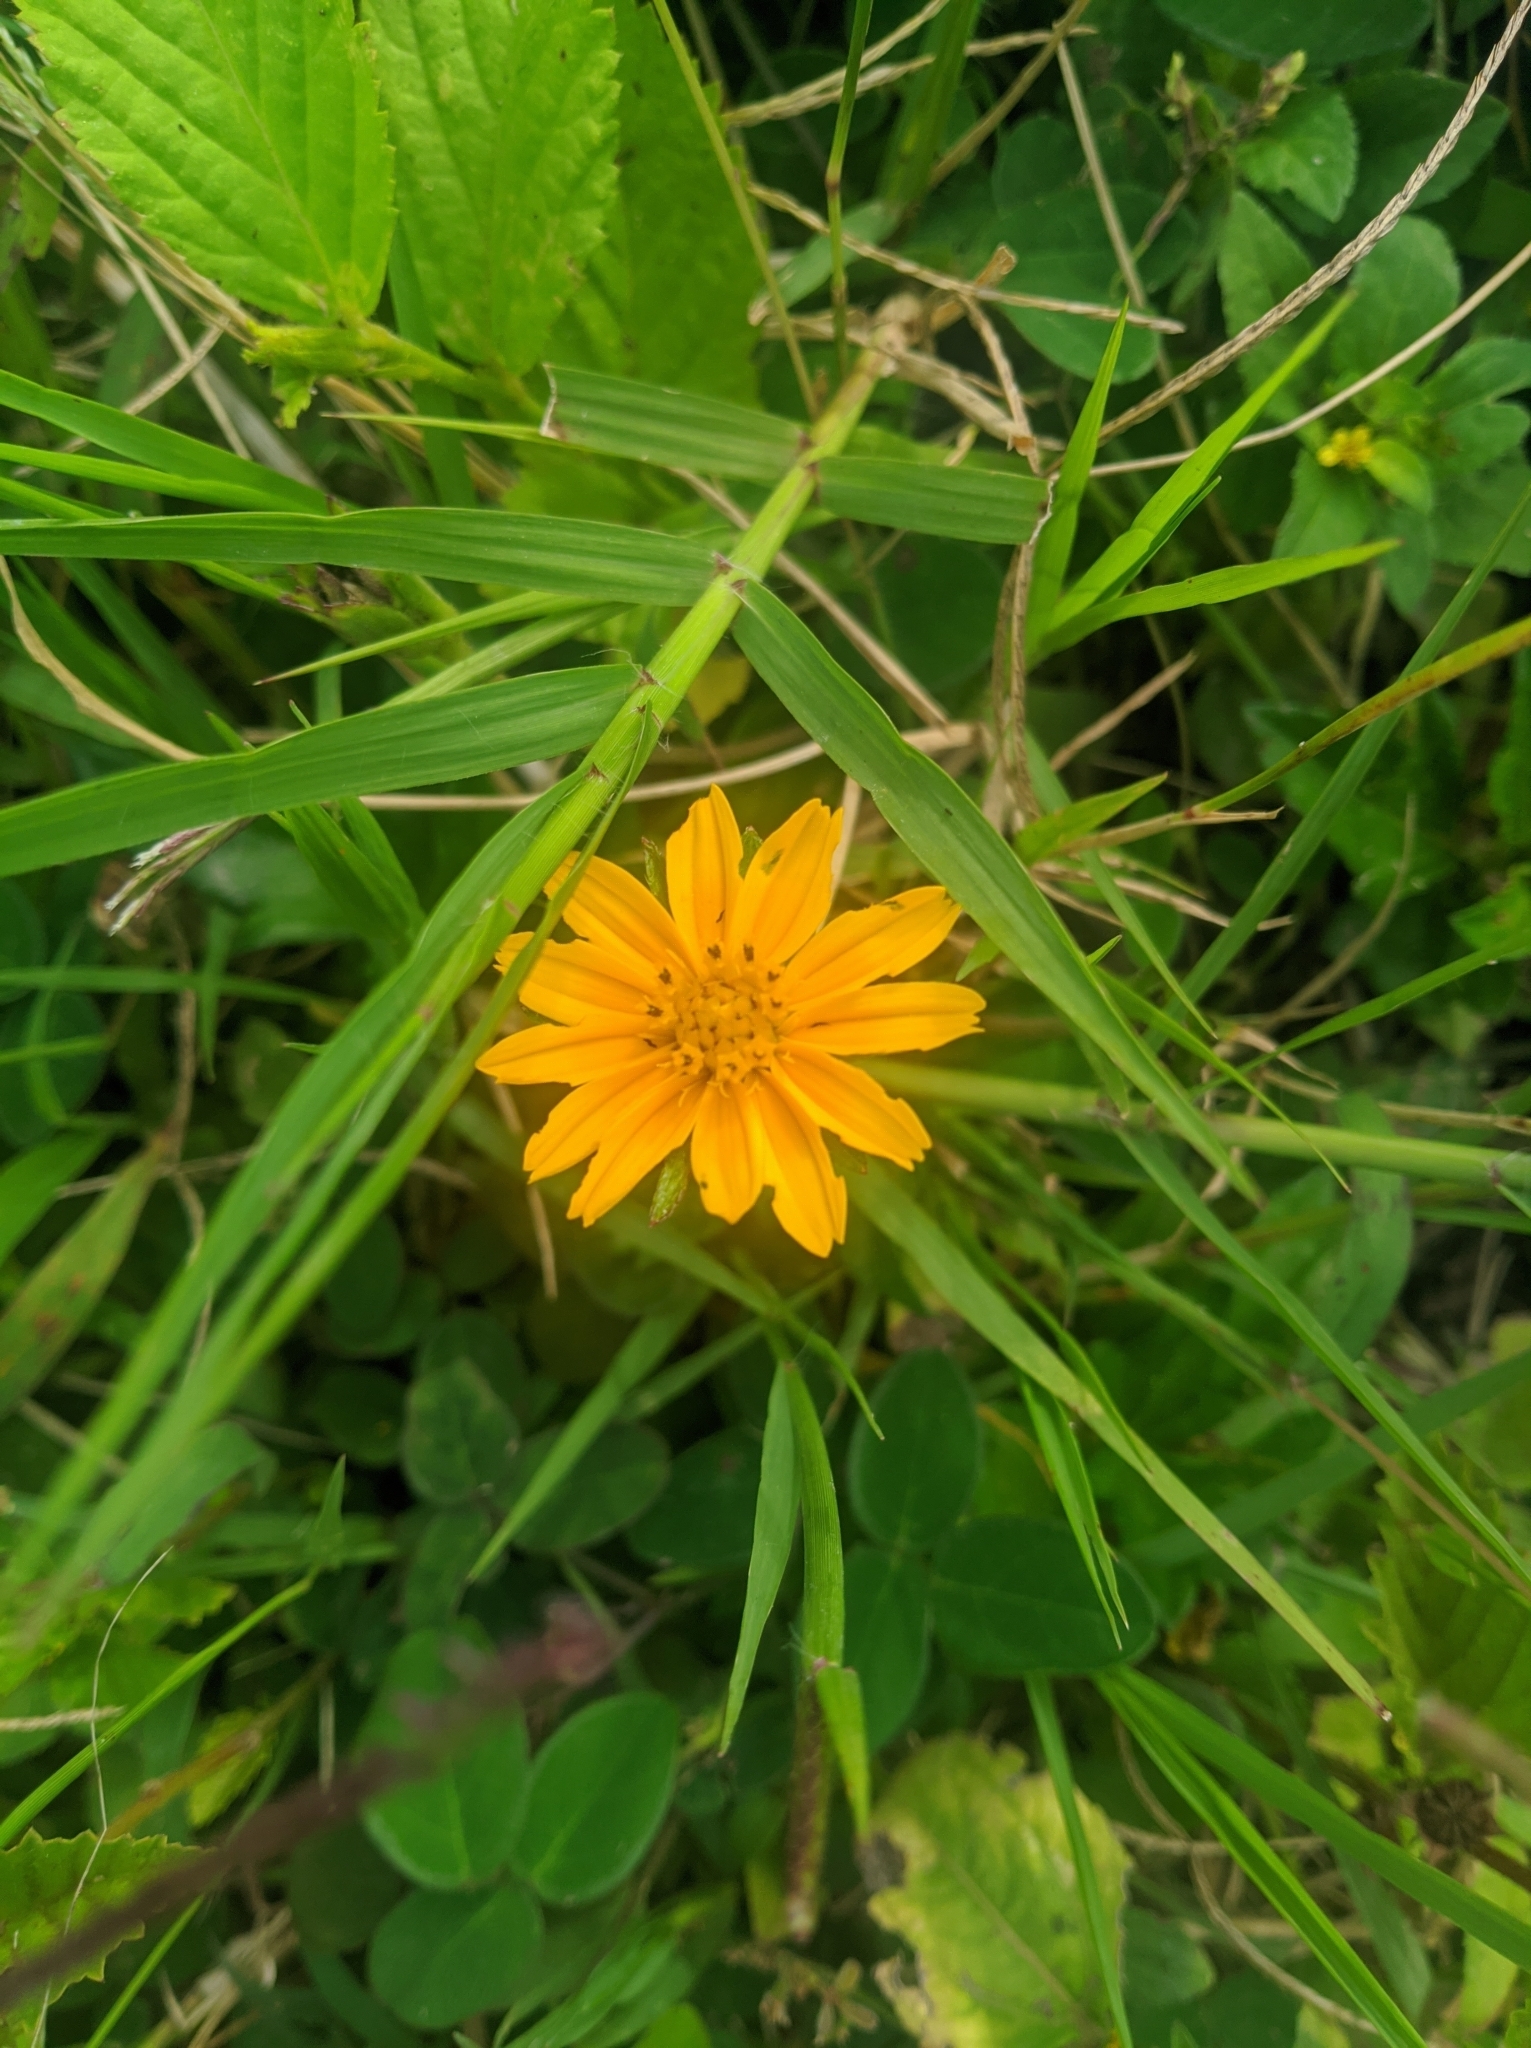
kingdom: Plantae
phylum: Tracheophyta
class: Magnoliopsida
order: Asterales
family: Asteraceae
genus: Sphagneticola
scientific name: Sphagneticola trilobata
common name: Bay biscayne creeping-oxeye
